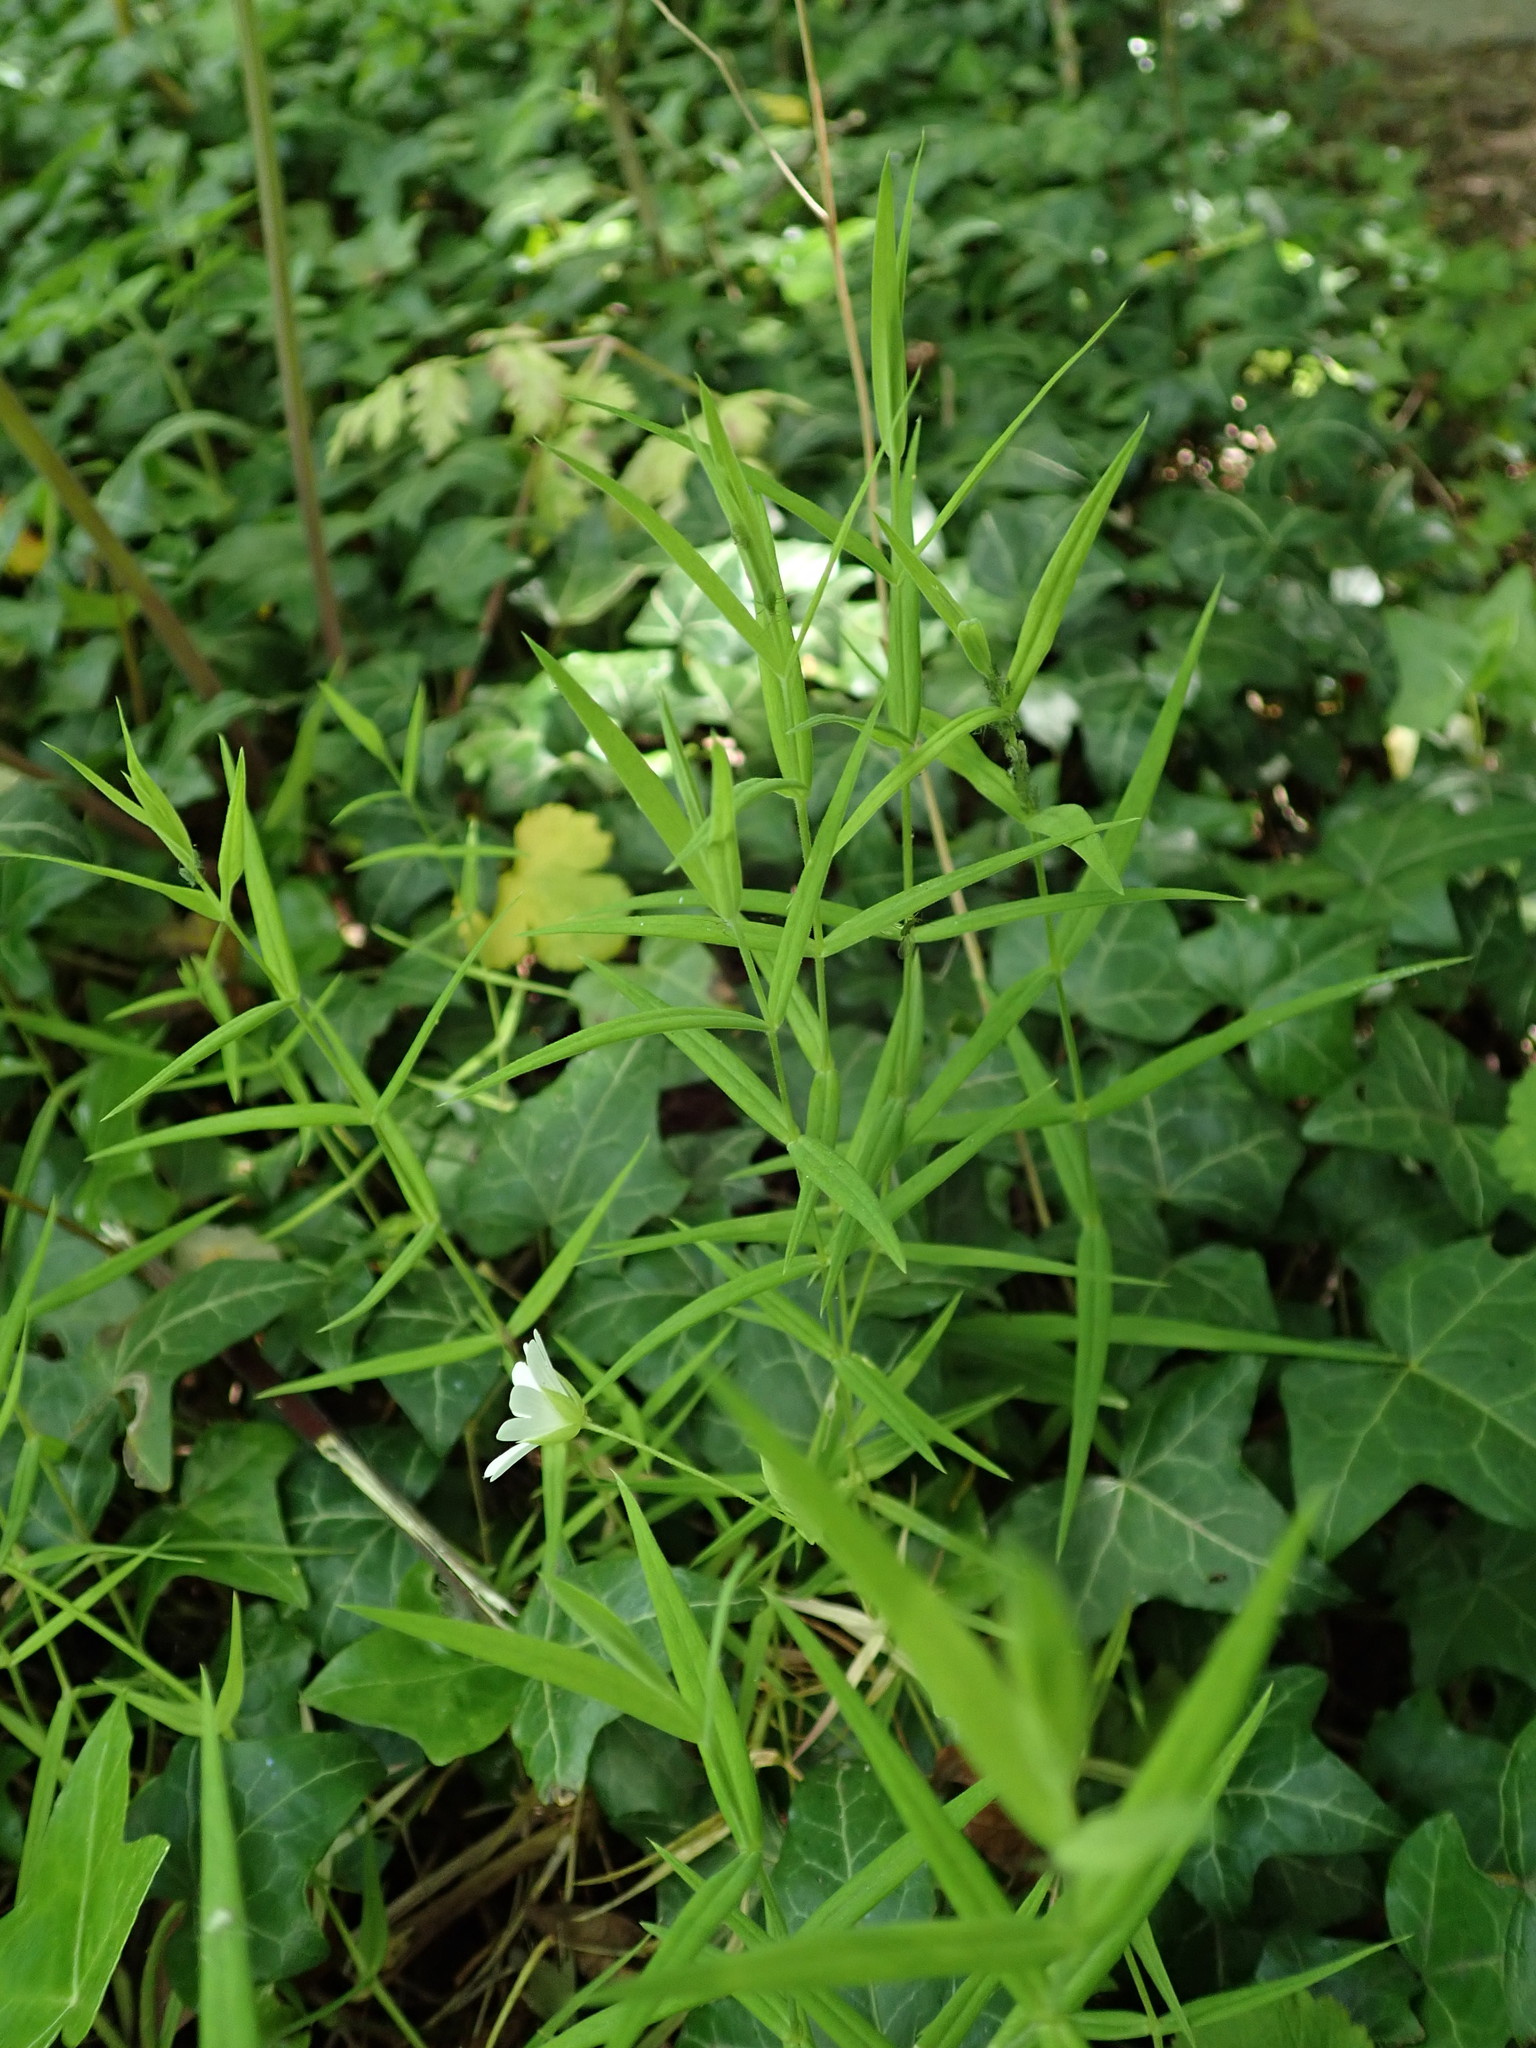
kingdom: Plantae
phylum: Tracheophyta
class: Magnoliopsida
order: Caryophyllales
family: Caryophyllaceae
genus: Rabelera
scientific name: Rabelera holostea
